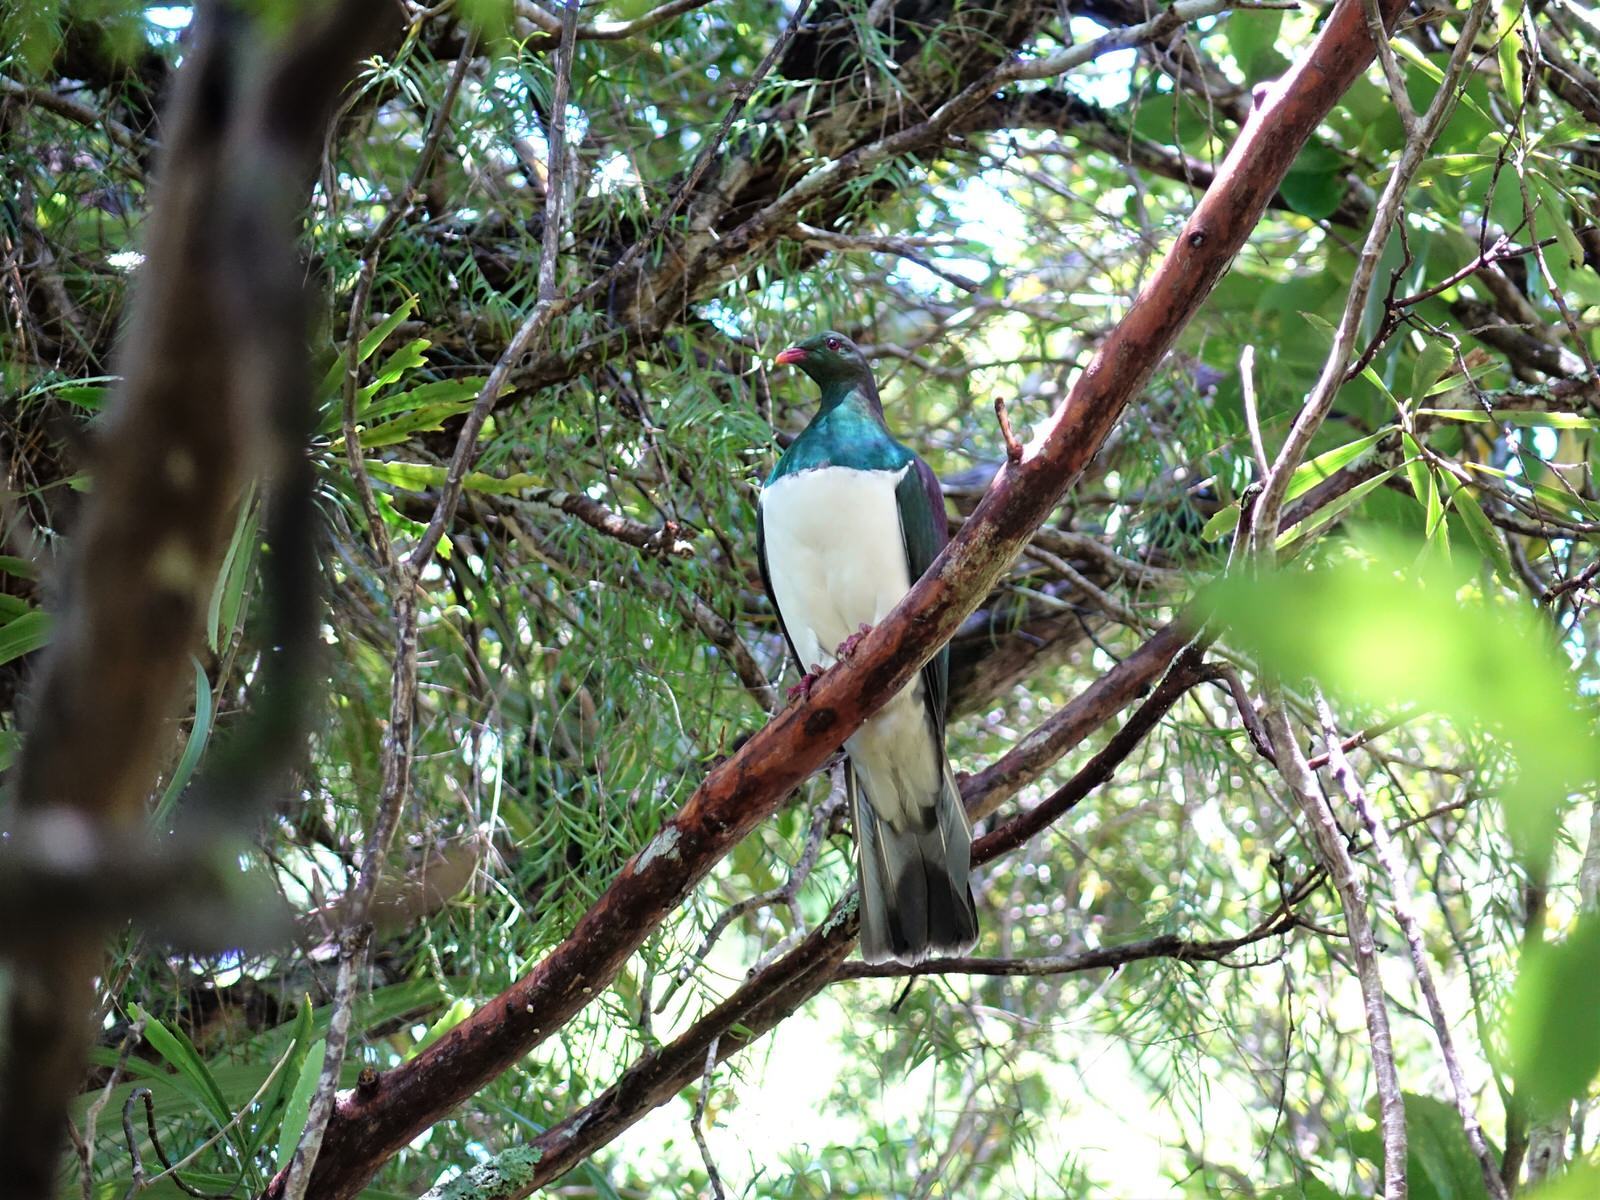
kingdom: Animalia
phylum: Chordata
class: Aves
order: Columbiformes
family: Columbidae
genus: Hemiphaga
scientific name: Hemiphaga novaeseelandiae
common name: New zealand pigeon
